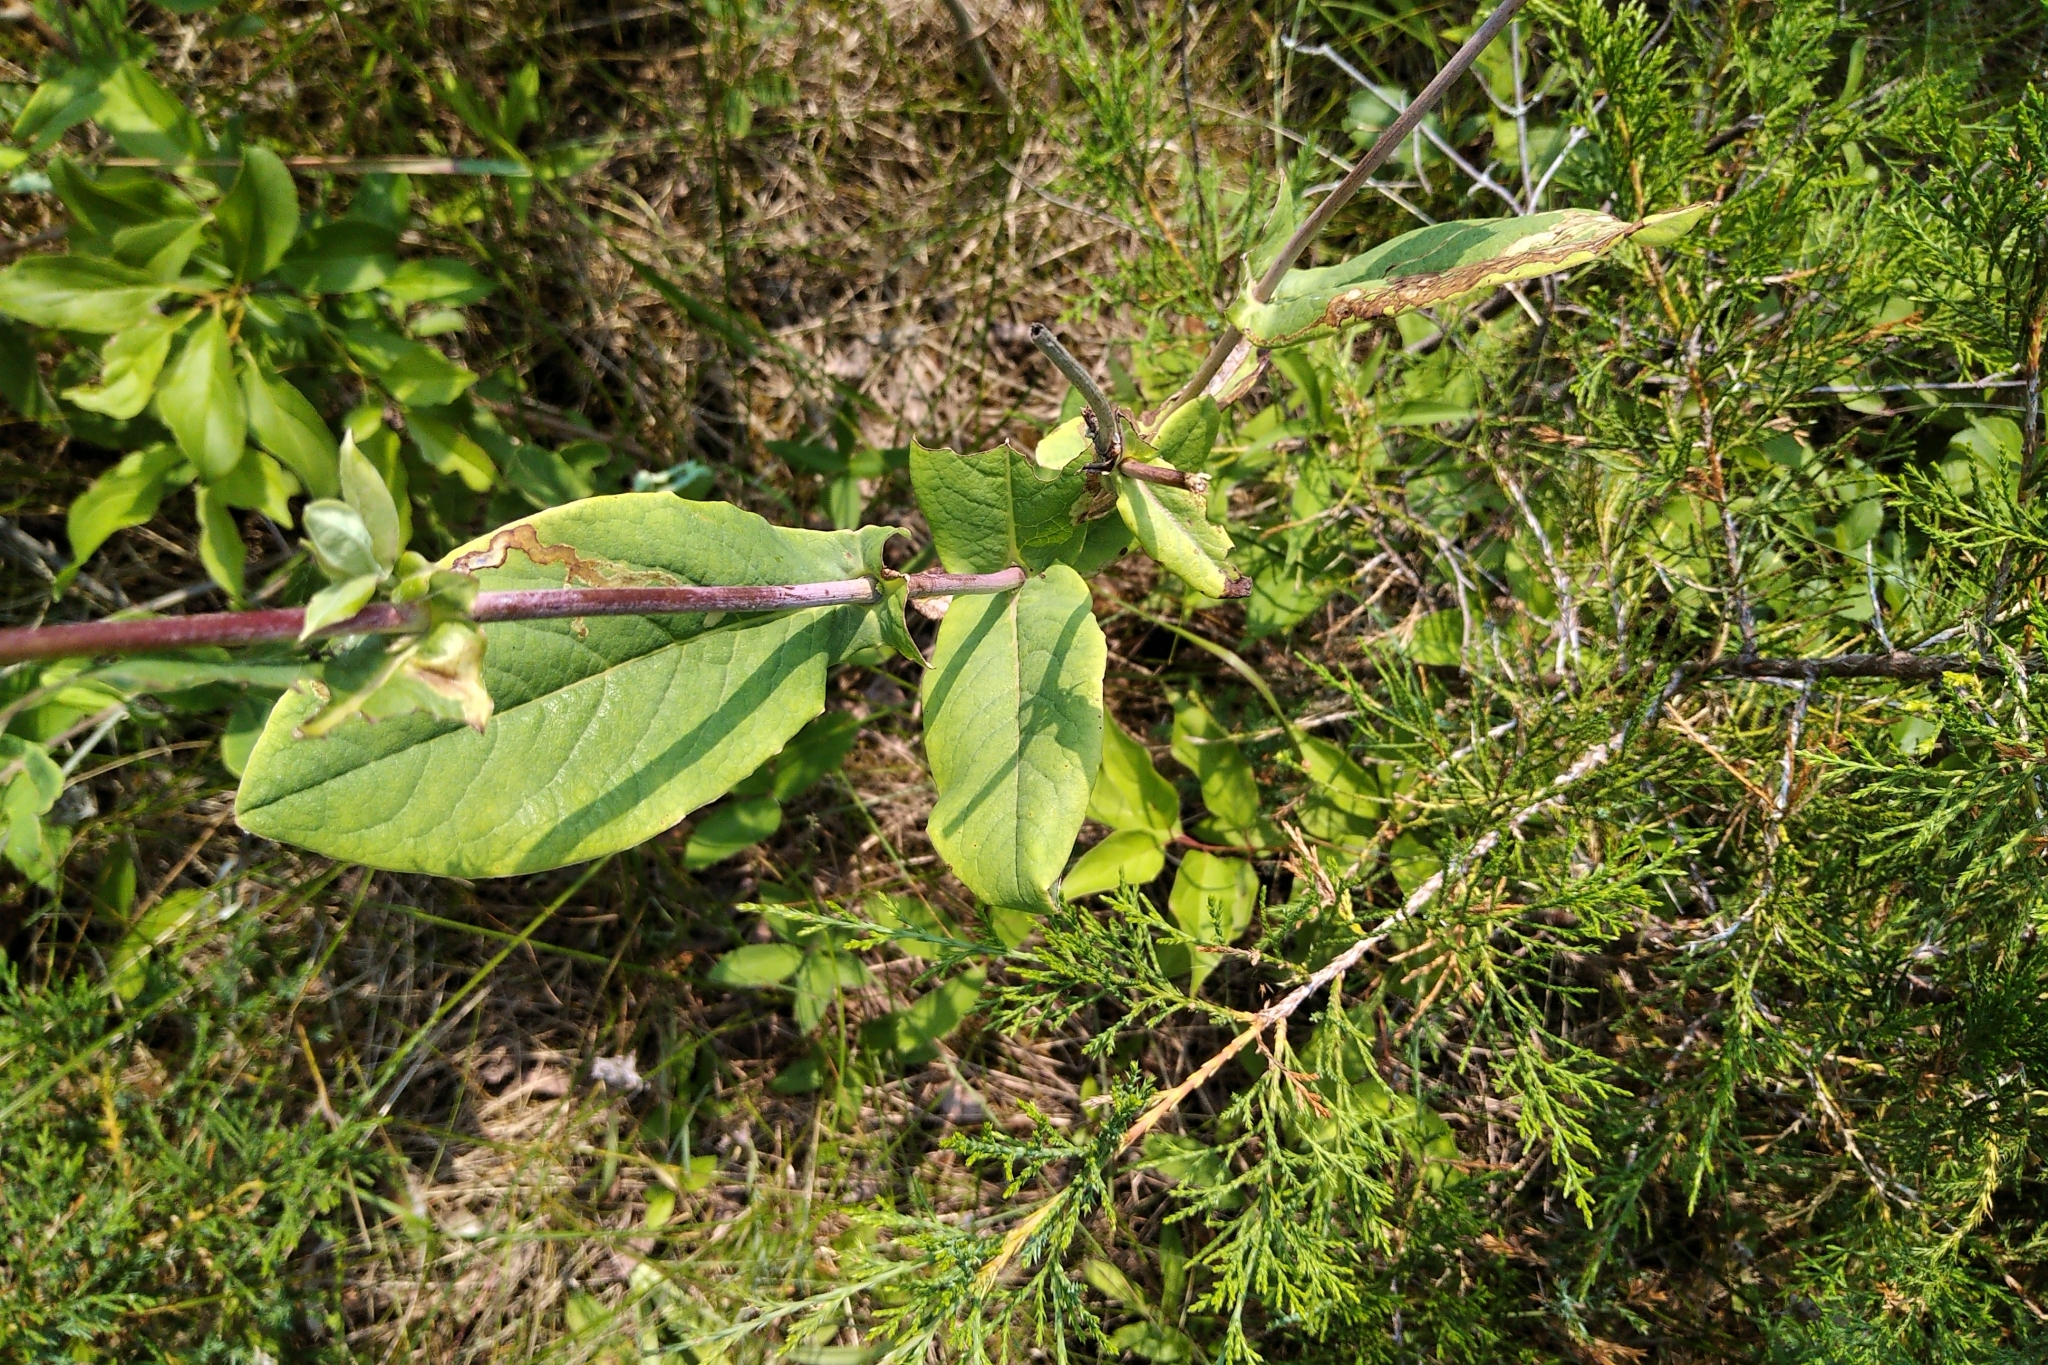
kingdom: Plantae
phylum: Tracheophyta
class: Magnoliopsida
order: Dipsacales
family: Caprifoliaceae
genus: Lonicera
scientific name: Lonicera dioica
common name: Limber honeysuckle
